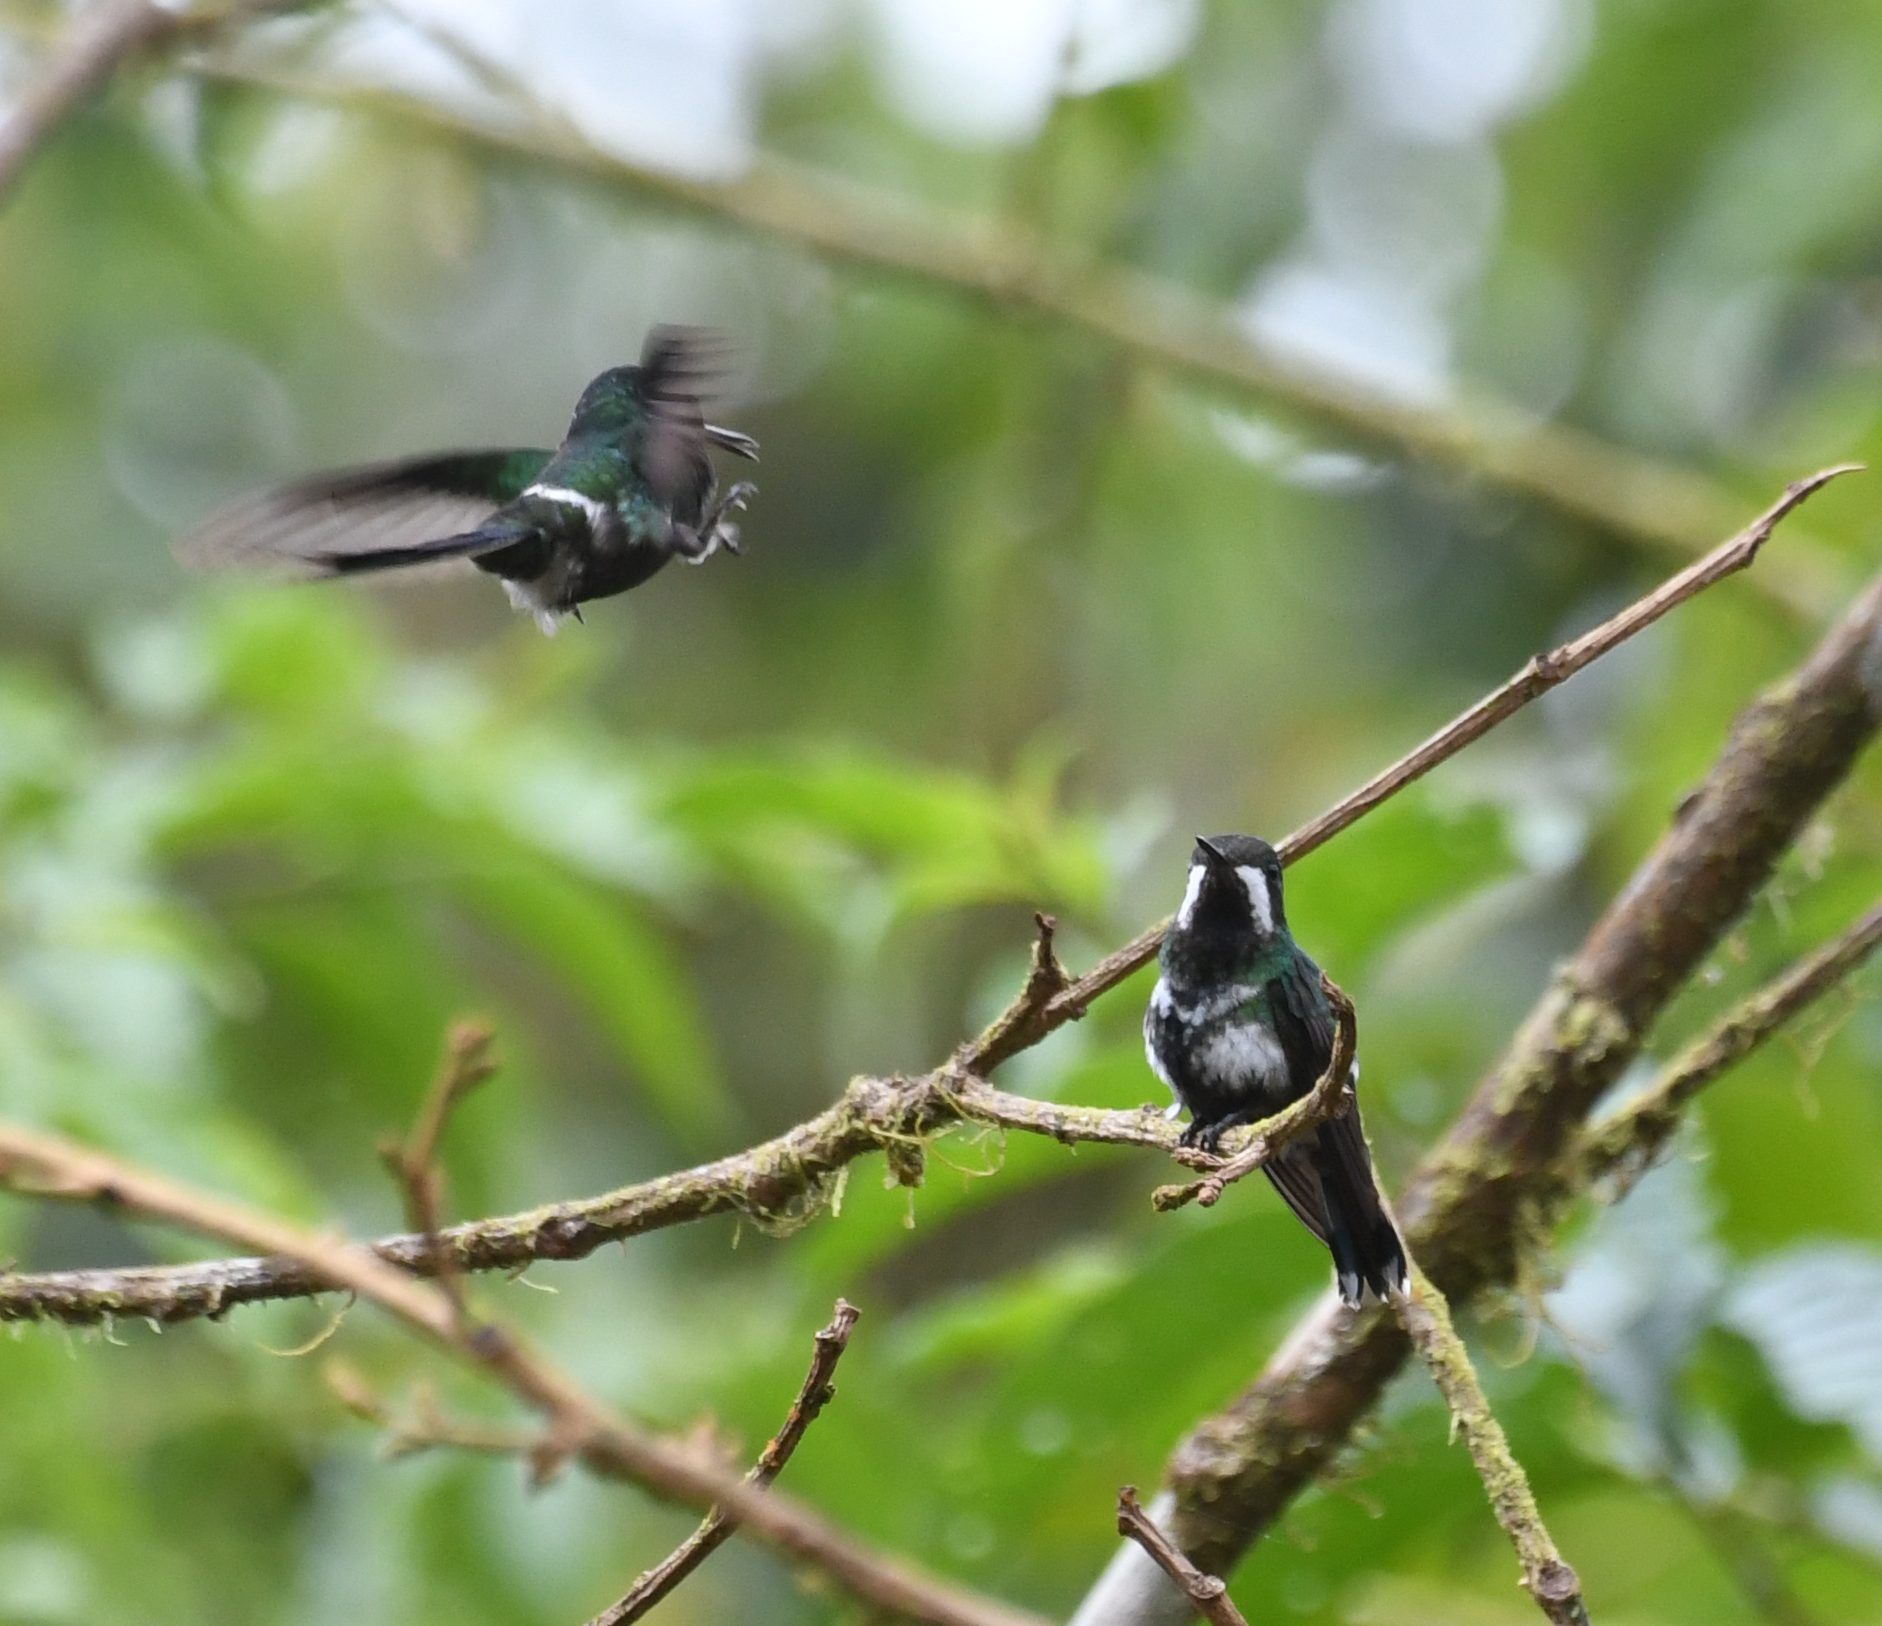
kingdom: Animalia
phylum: Chordata
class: Aves
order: Apodiformes
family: Trochilidae
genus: Discosura
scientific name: Discosura conversii
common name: Green thorntail
